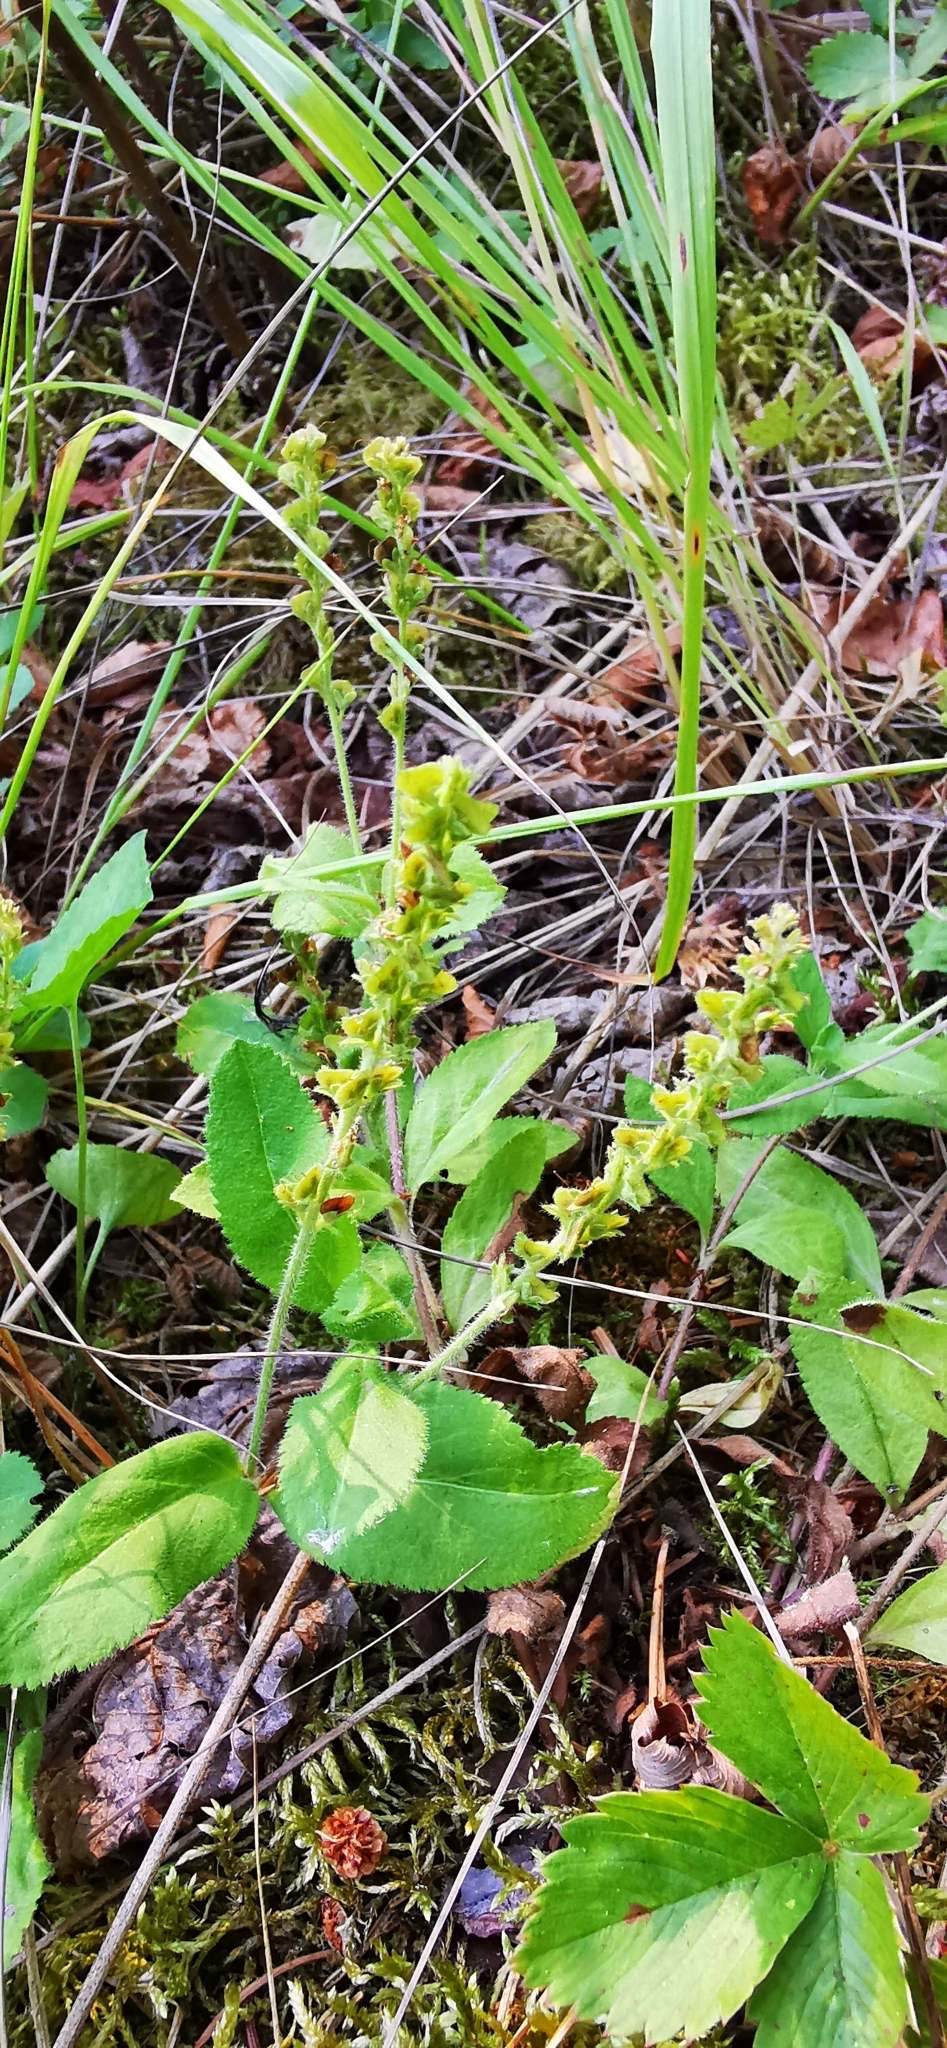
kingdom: Plantae
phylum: Tracheophyta
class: Magnoliopsida
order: Lamiales
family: Plantaginaceae
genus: Veronica
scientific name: Veronica officinalis
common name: Common speedwell
